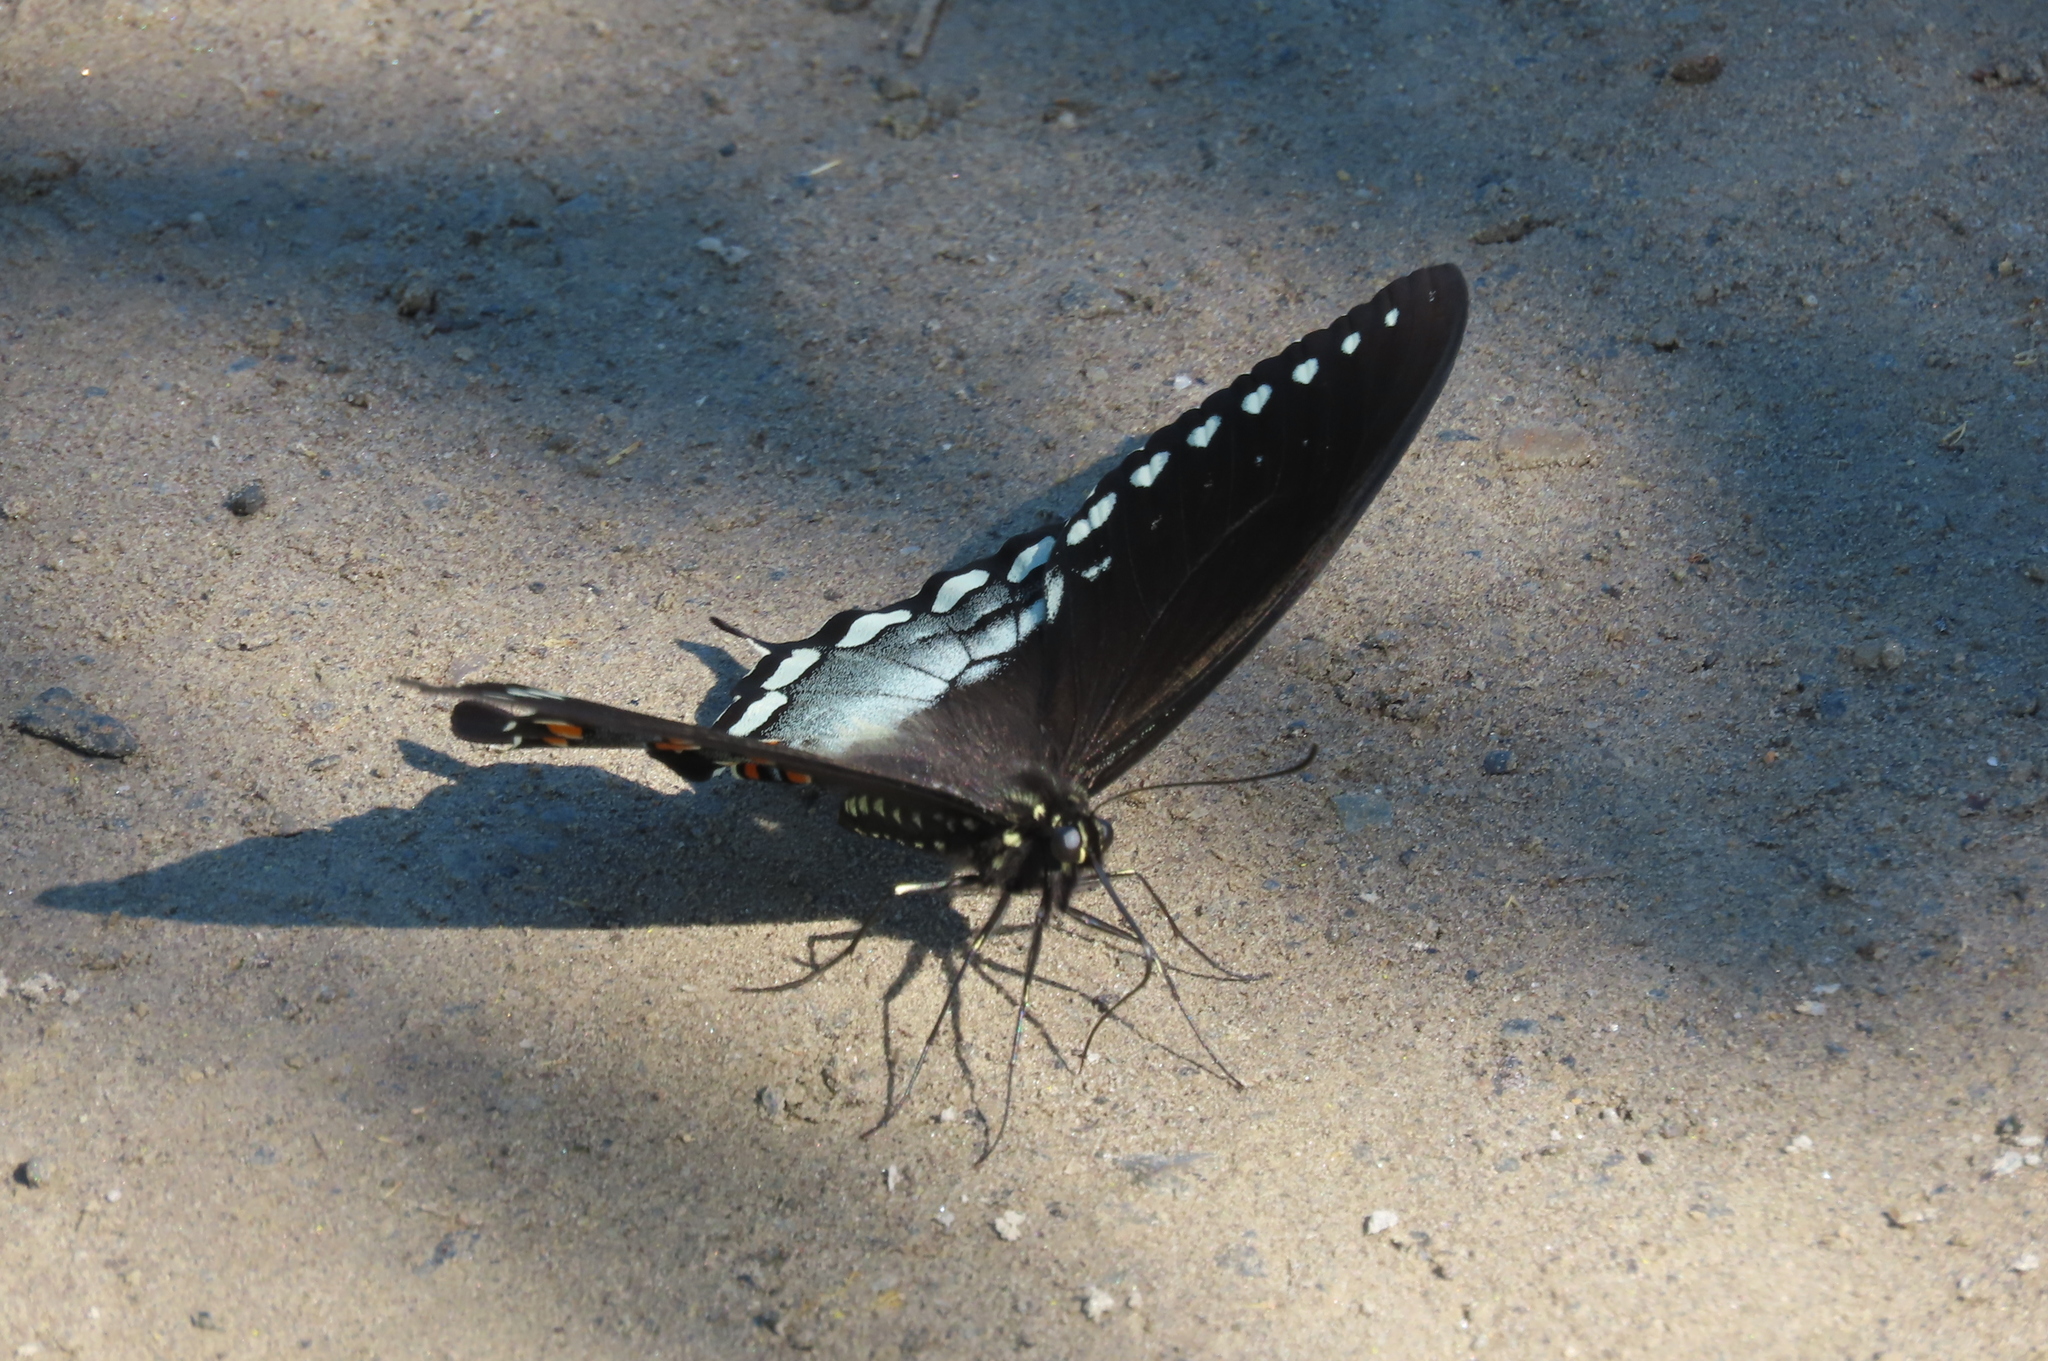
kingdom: Animalia
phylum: Arthropoda
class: Insecta
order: Lepidoptera
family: Papilionidae
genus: Papilio
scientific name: Papilio troilus
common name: Spicebush swallowtail
